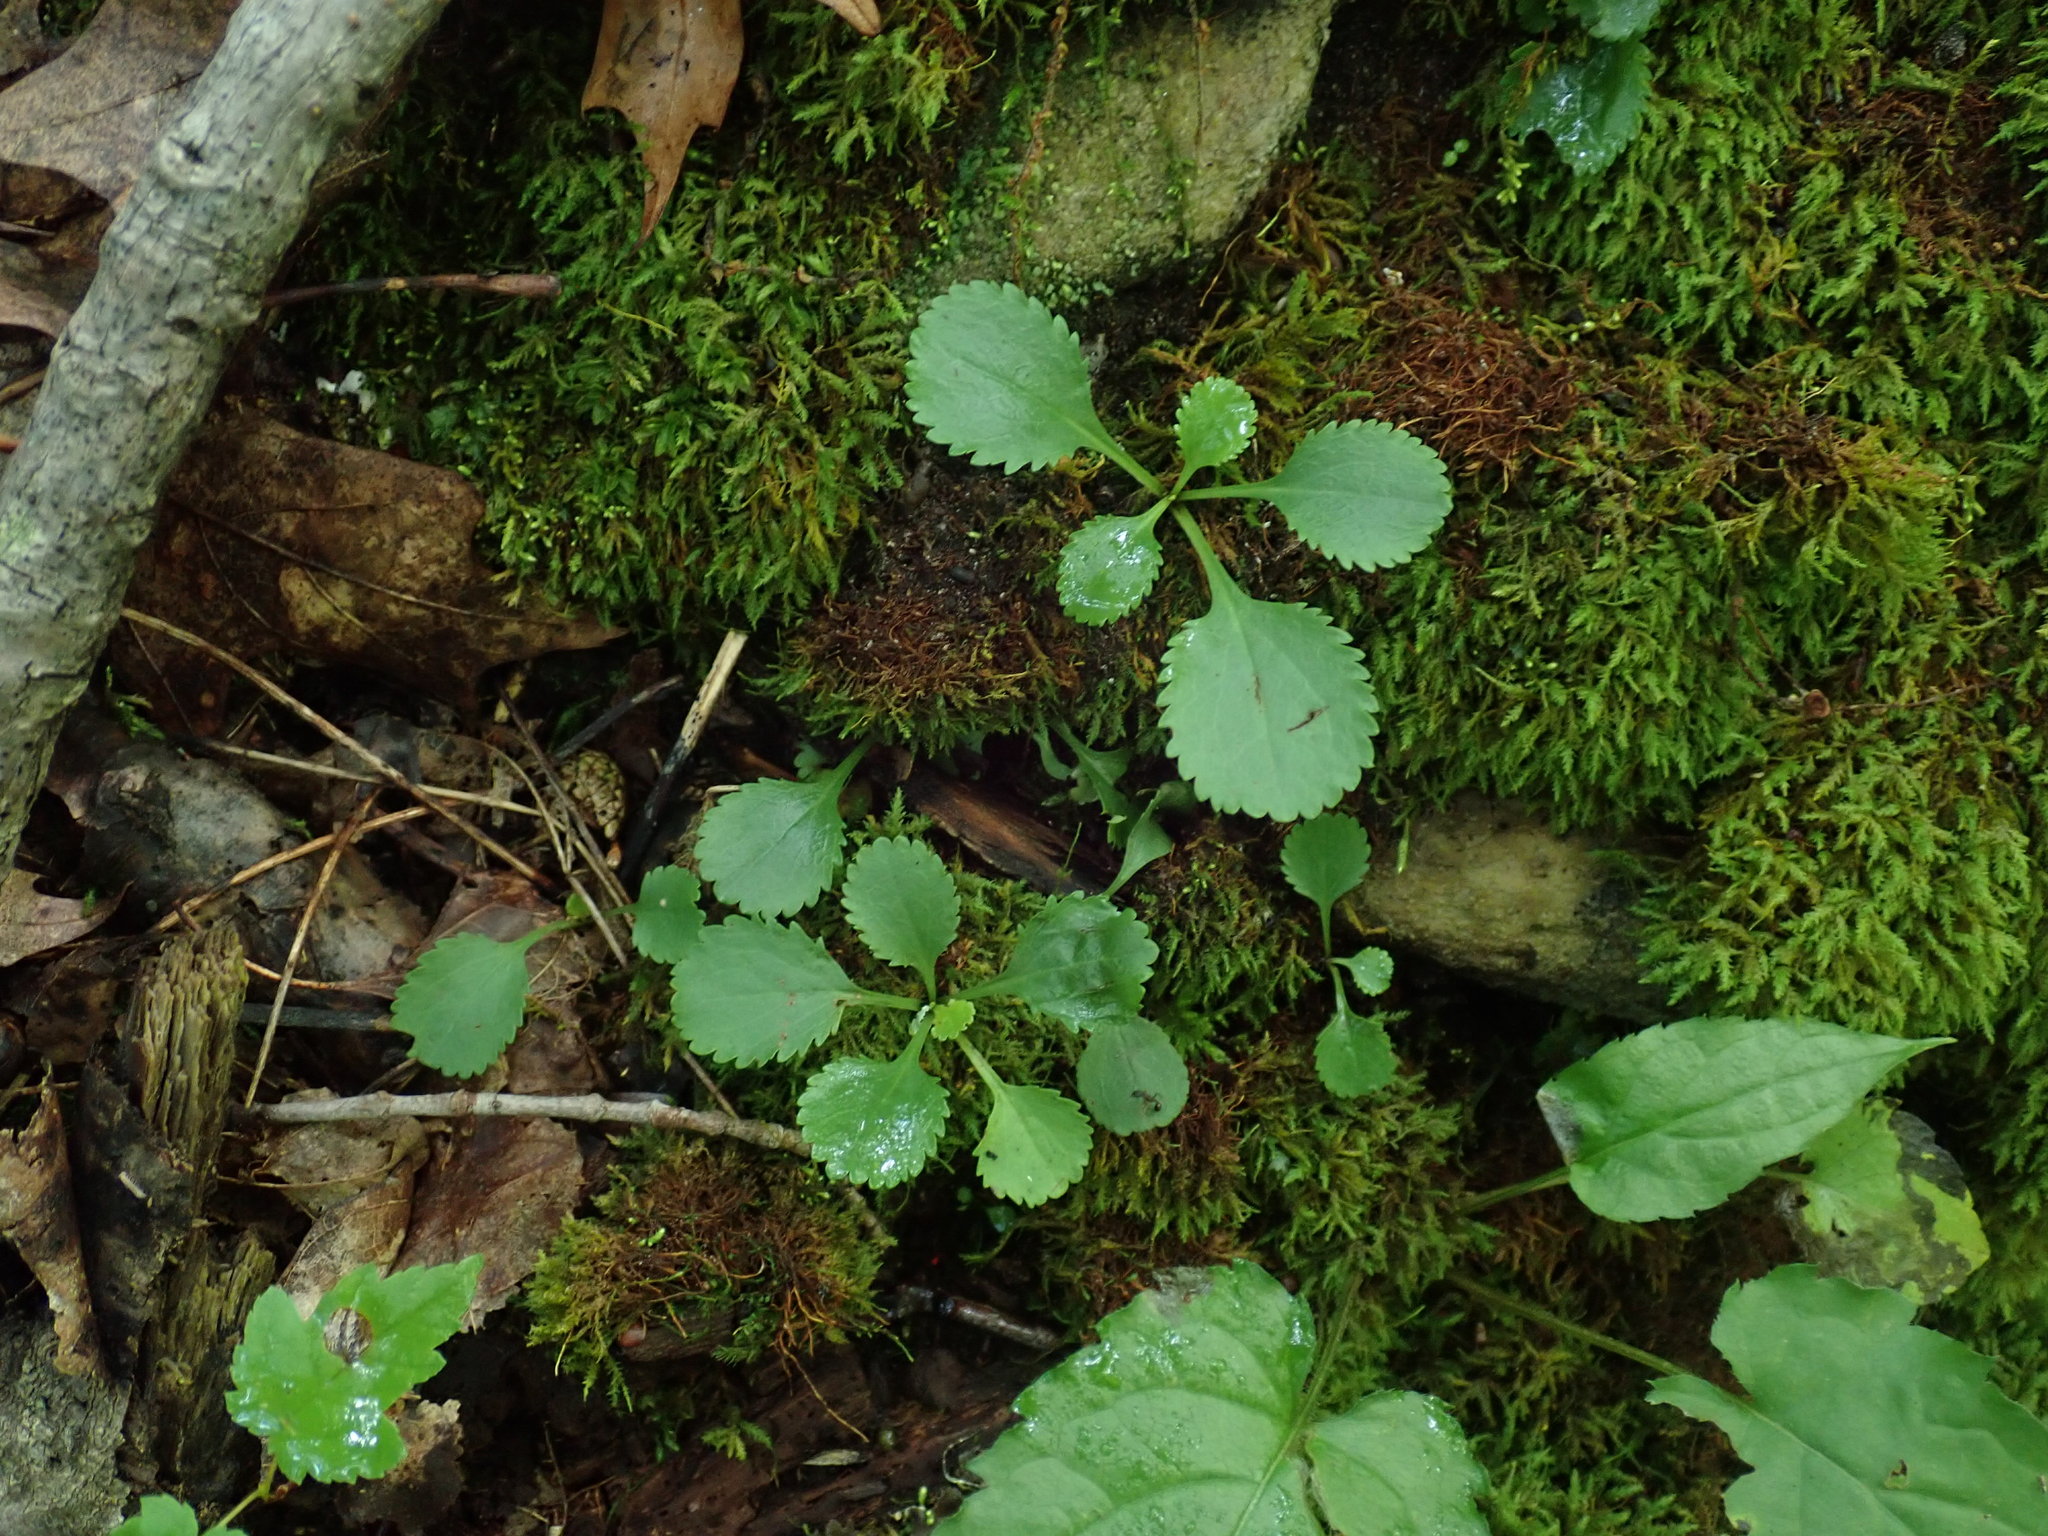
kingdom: Plantae
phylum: Tracheophyta
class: Magnoliopsida
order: Asterales
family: Asteraceae
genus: Packera
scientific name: Packera obovata
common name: Round-leaf ragwort
